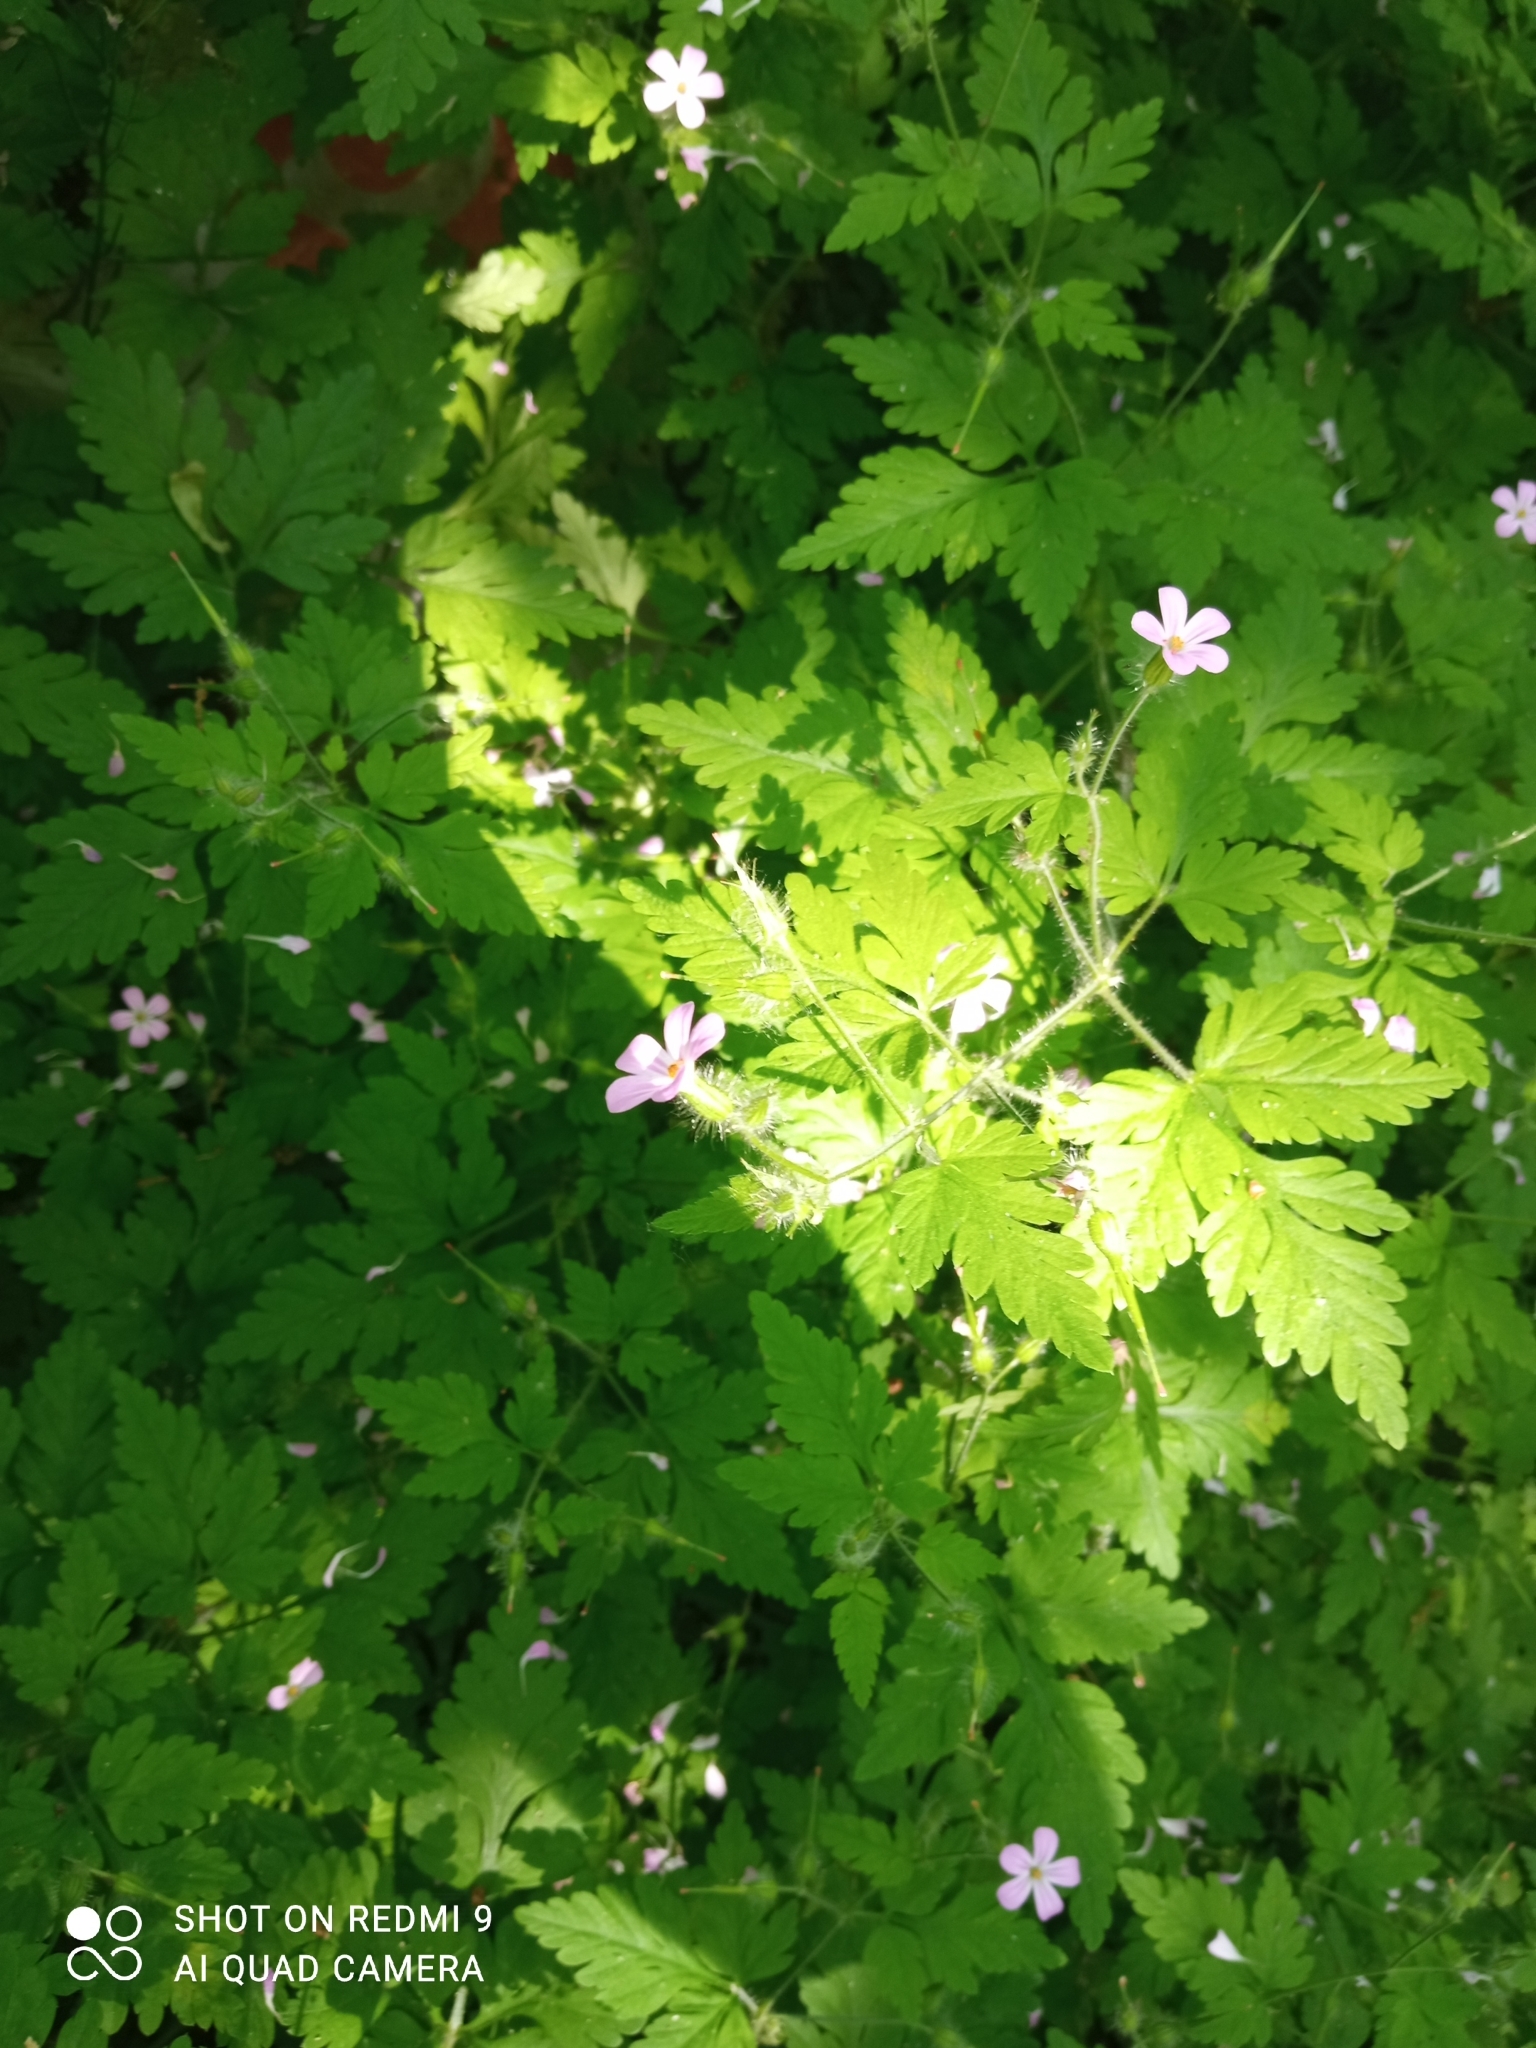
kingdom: Plantae
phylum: Tracheophyta
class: Magnoliopsida
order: Geraniales
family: Geraniaceae
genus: Geranium
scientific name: Geranium robertianum
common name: Herb-robert
